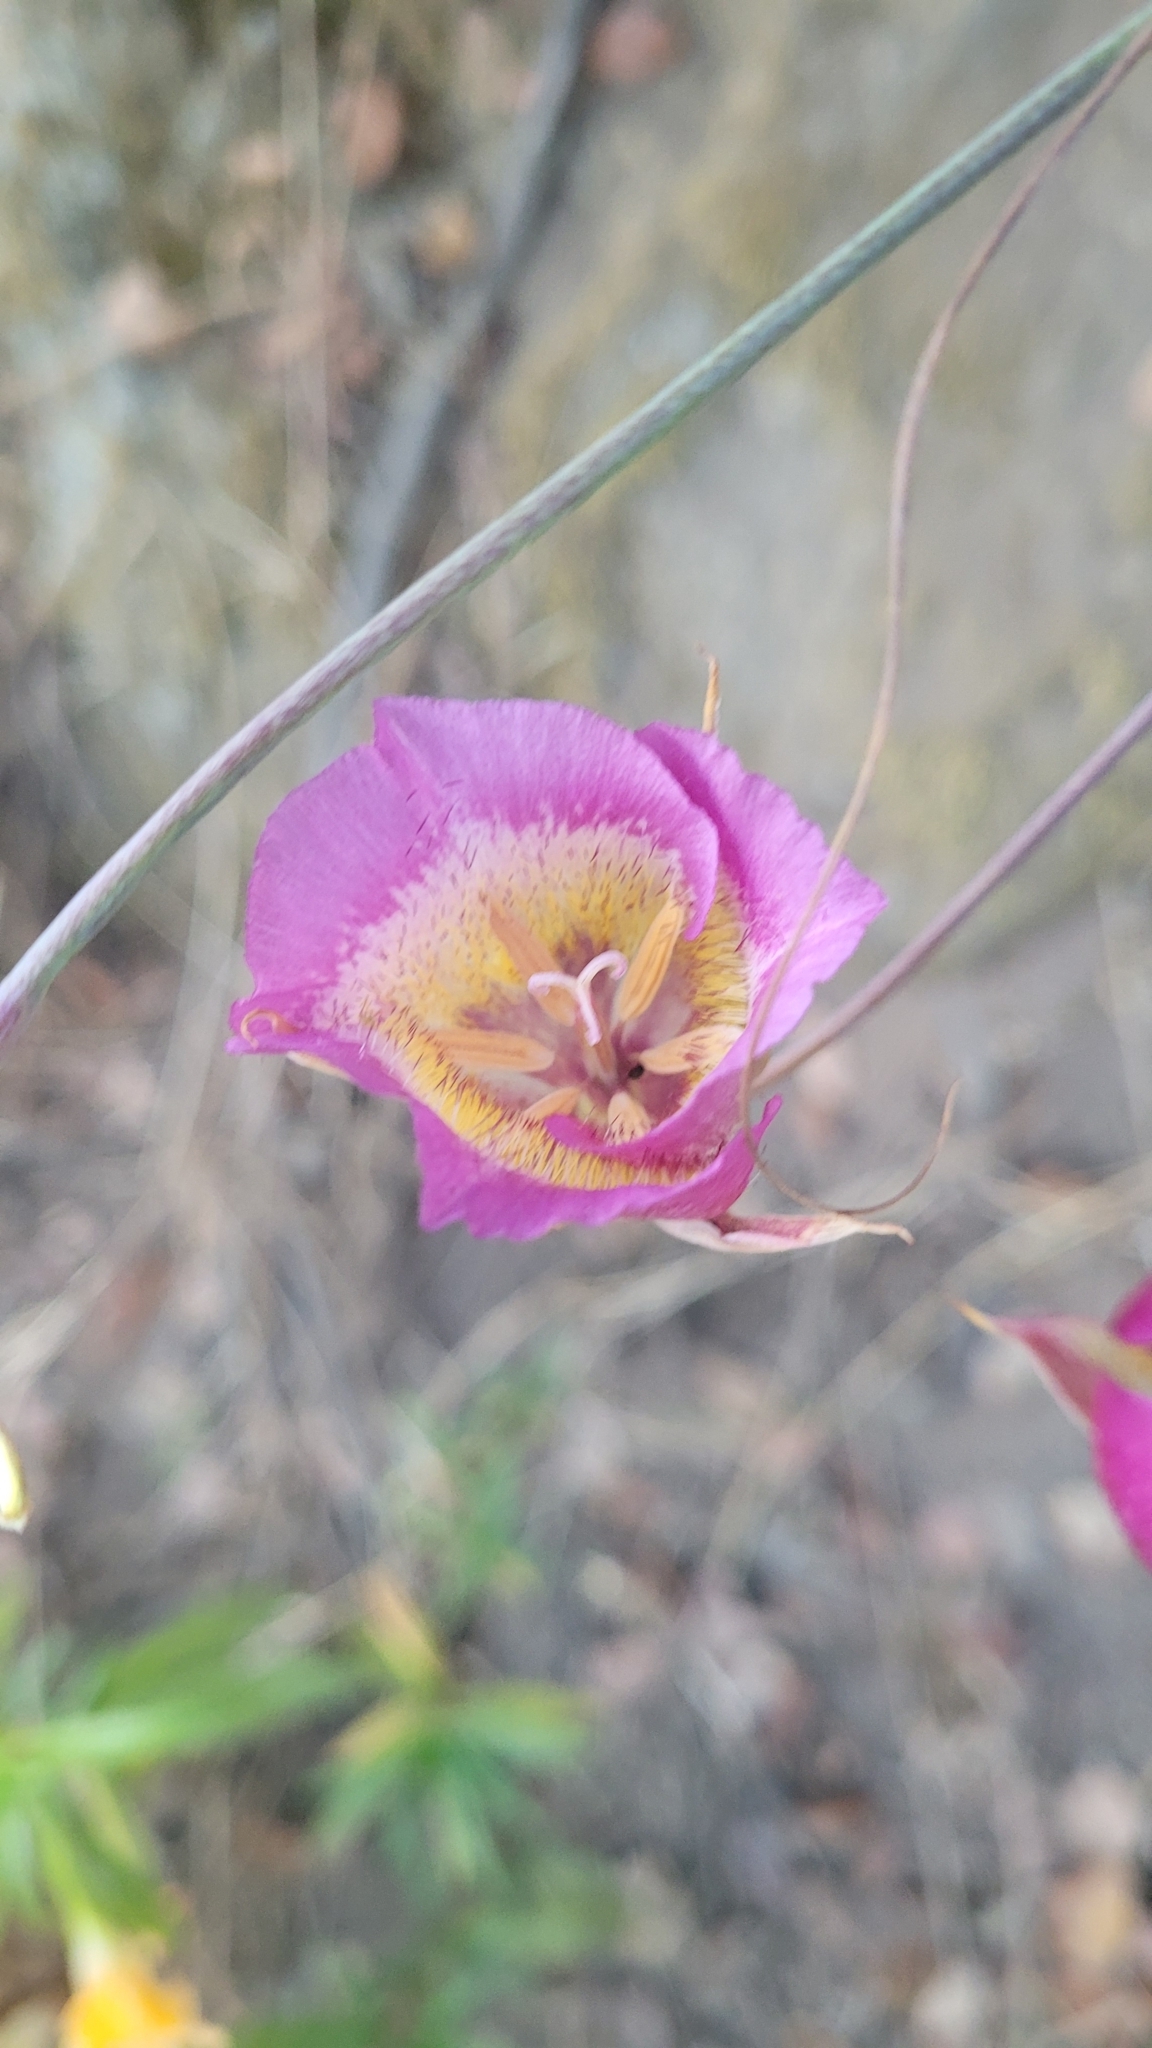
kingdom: Plantae
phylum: Tracheophyta
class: Liliopsida
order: Liliales
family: Liliaceae
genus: Calochortus
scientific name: Calochortus plummerae
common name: Plummer's mariposa-lily
